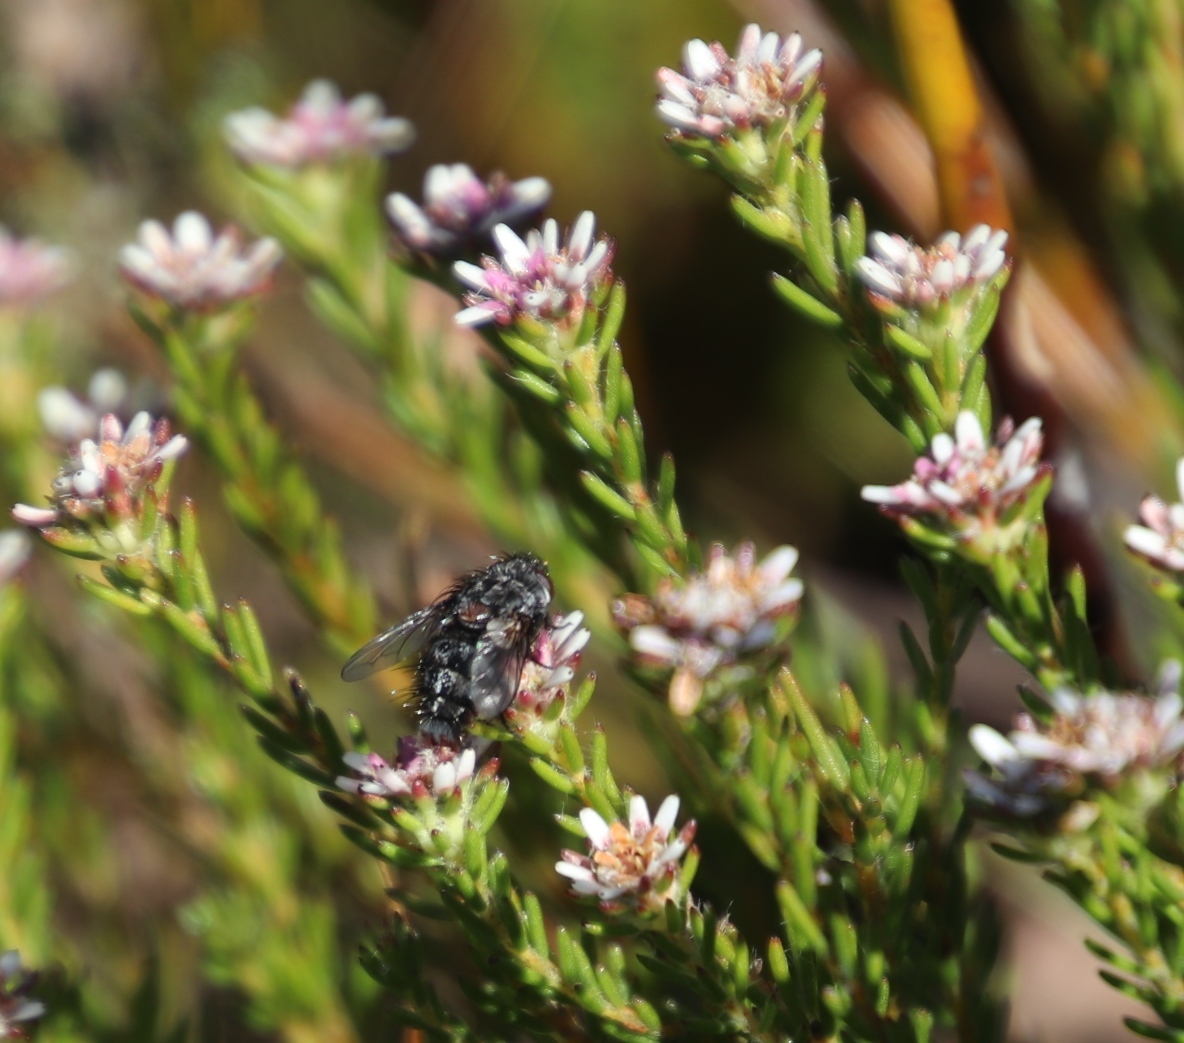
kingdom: Plantae
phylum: Tracheophyta
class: Magnoliopsida
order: Bruniales
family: Bruniaceae
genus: Staavia
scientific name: Staavia radiata
